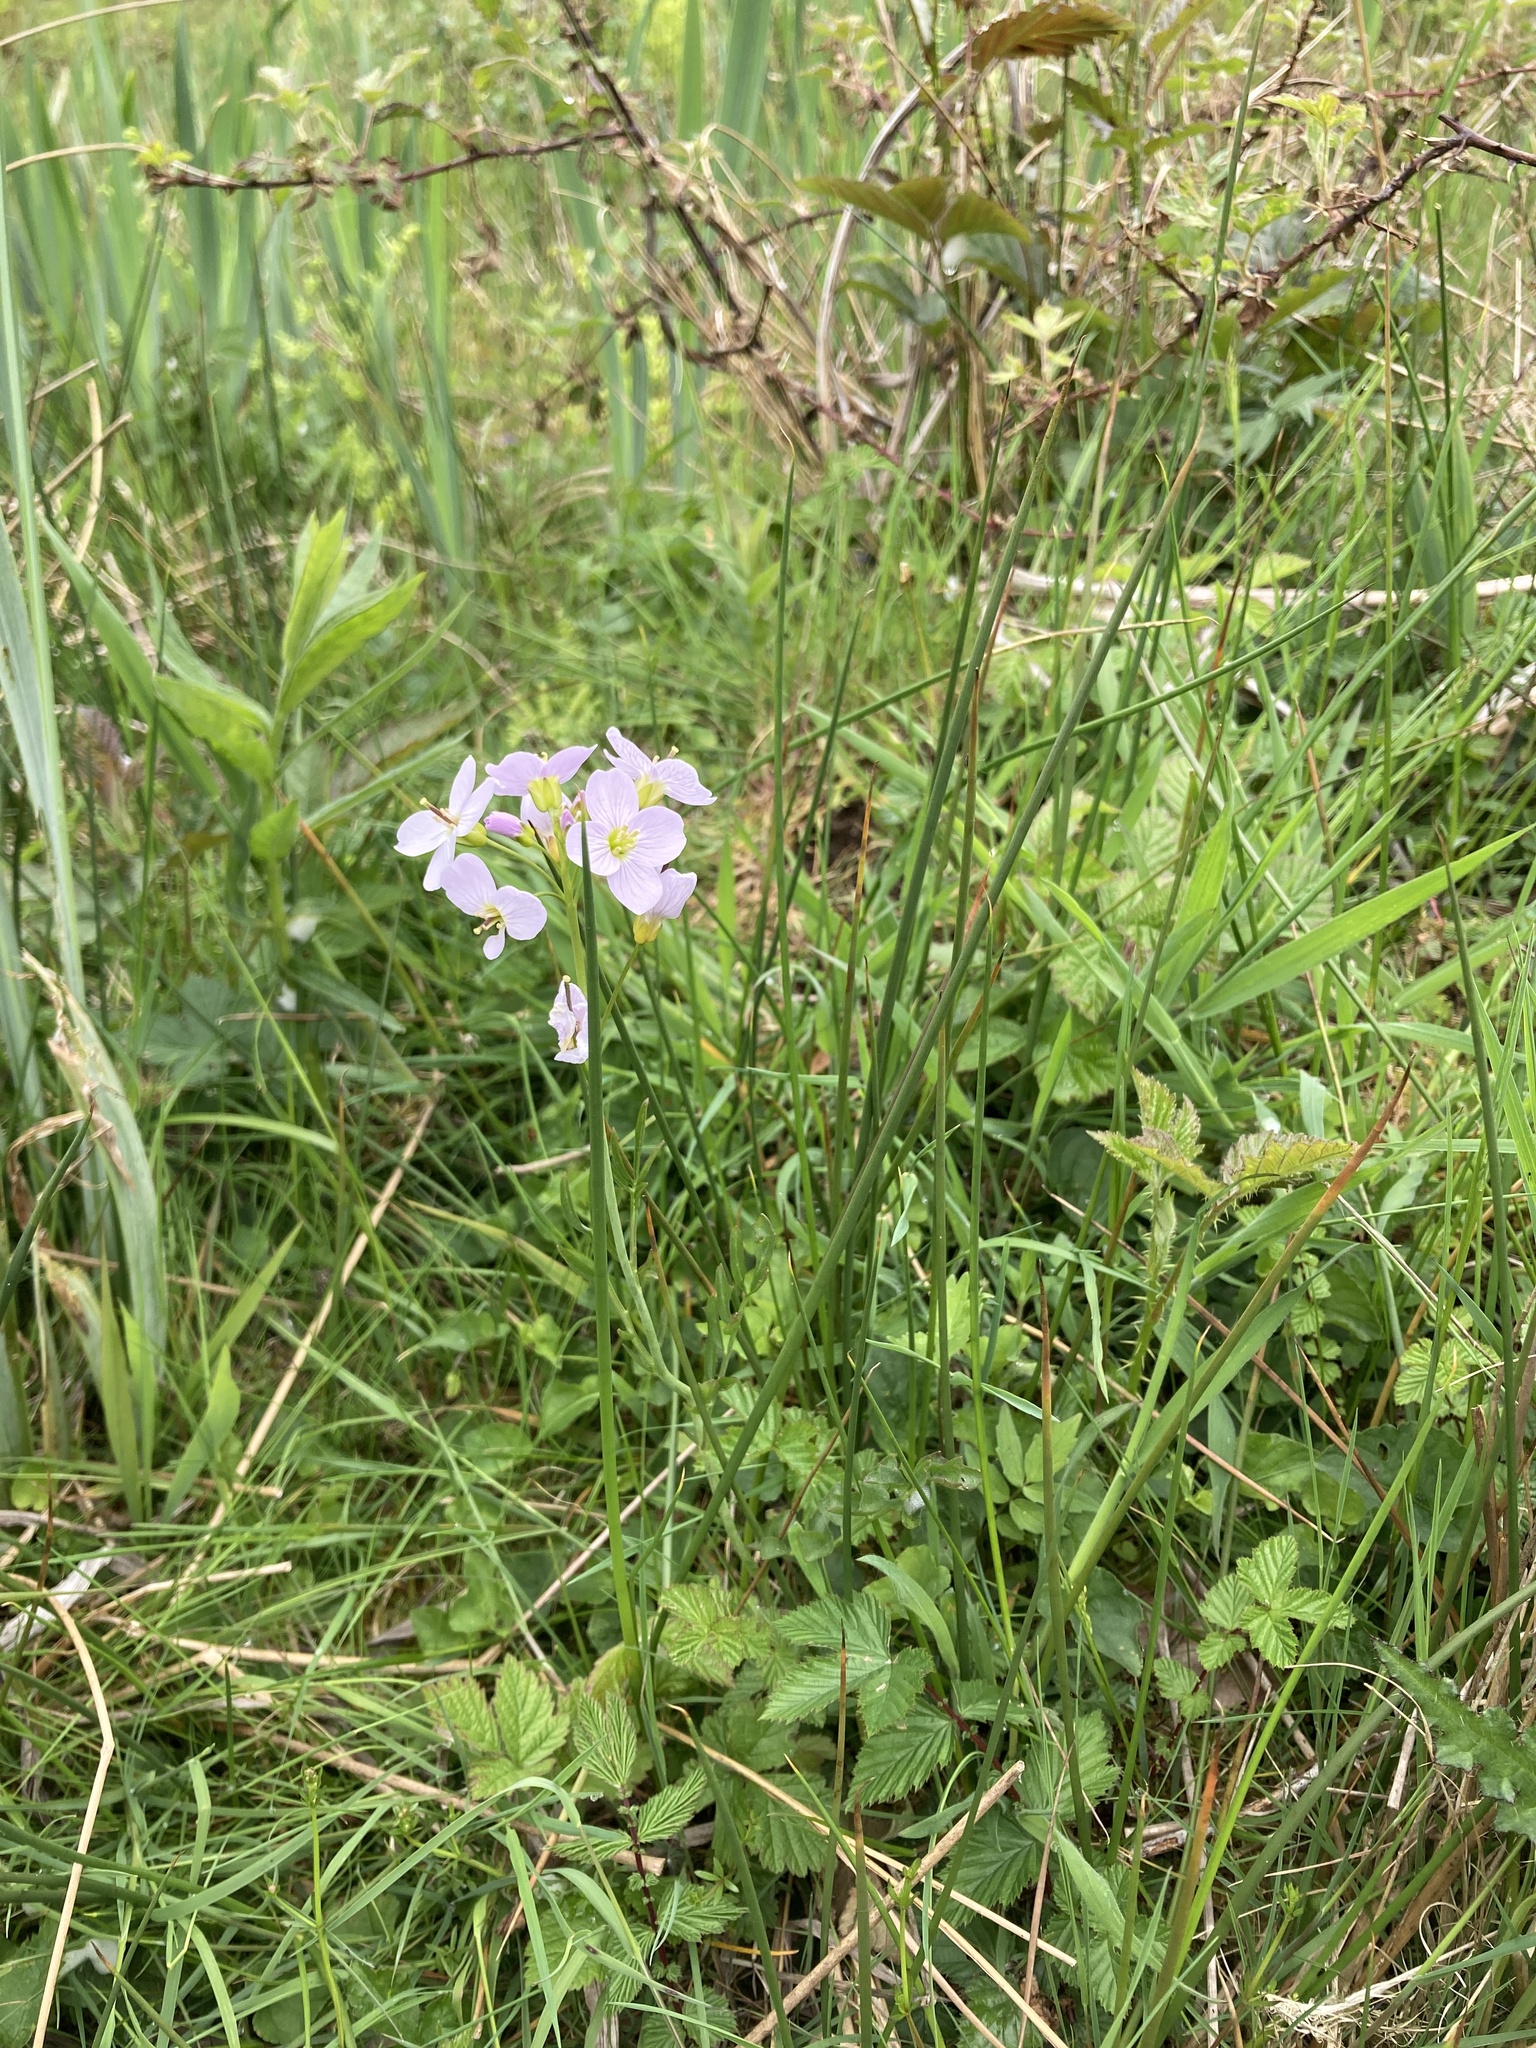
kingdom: Plantae
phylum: Tracheophyta
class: Magnoliopsida
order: Brassicales
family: Brassicaceae
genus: Cardamine
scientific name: Cardamine pratensis
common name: Cuckoo flower
